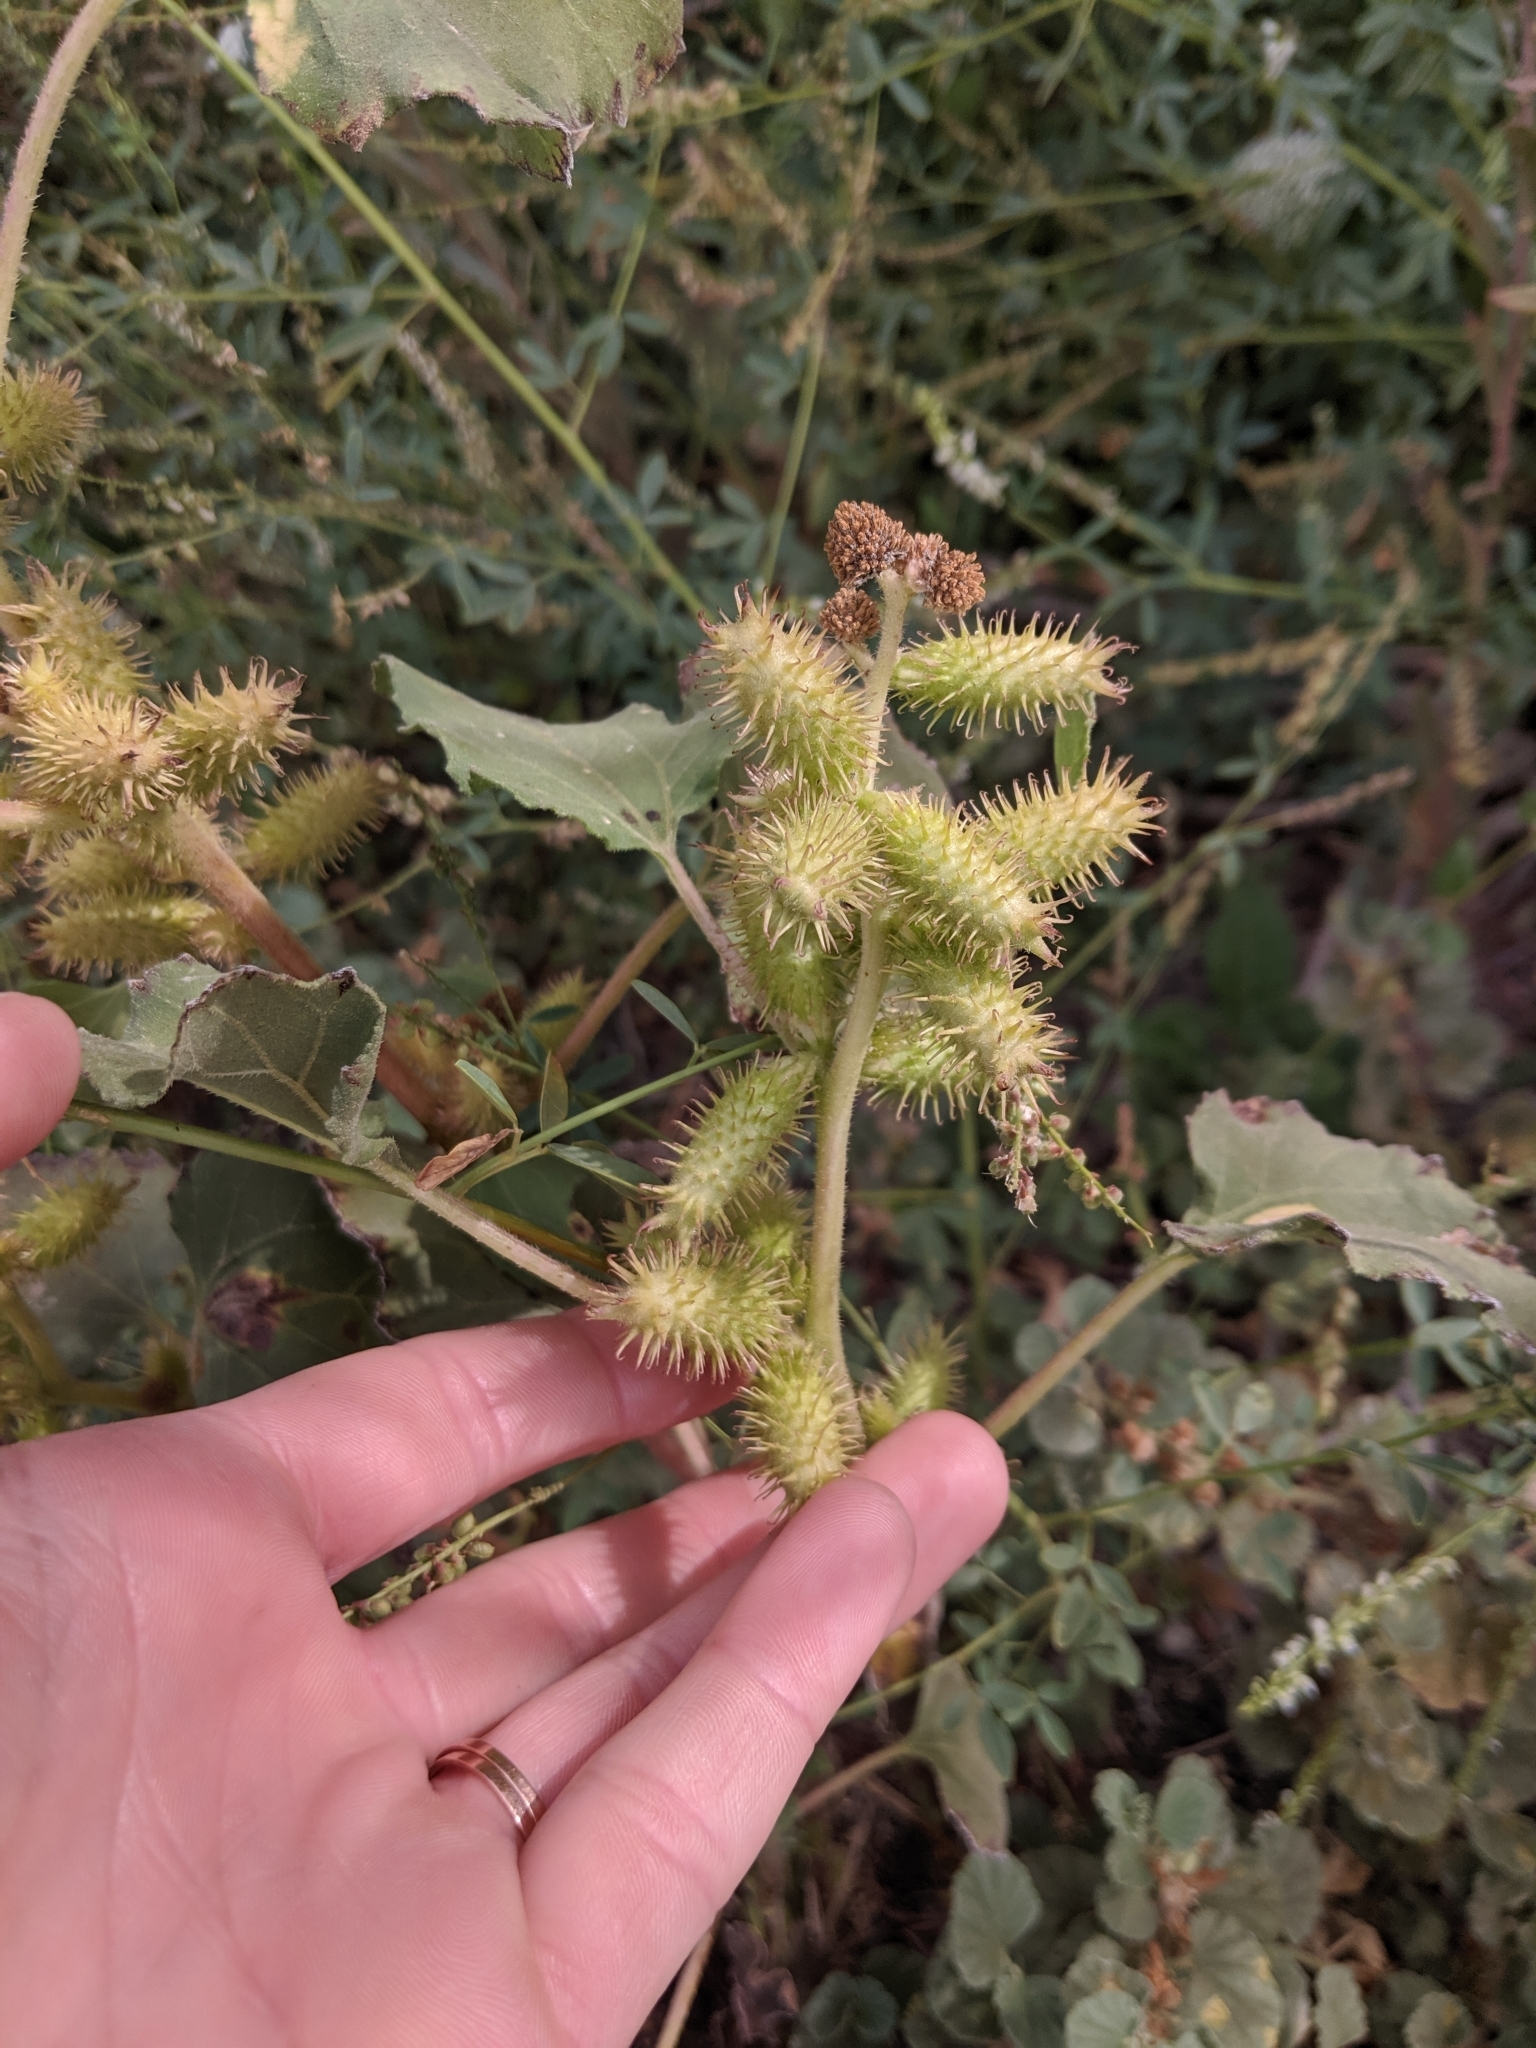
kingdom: Plantae
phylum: Tracheophyta
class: Magnoliopsida
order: Asterales
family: Asteraceae
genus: Xanthium
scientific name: Xanthium strumarium
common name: Rough cocklebur
